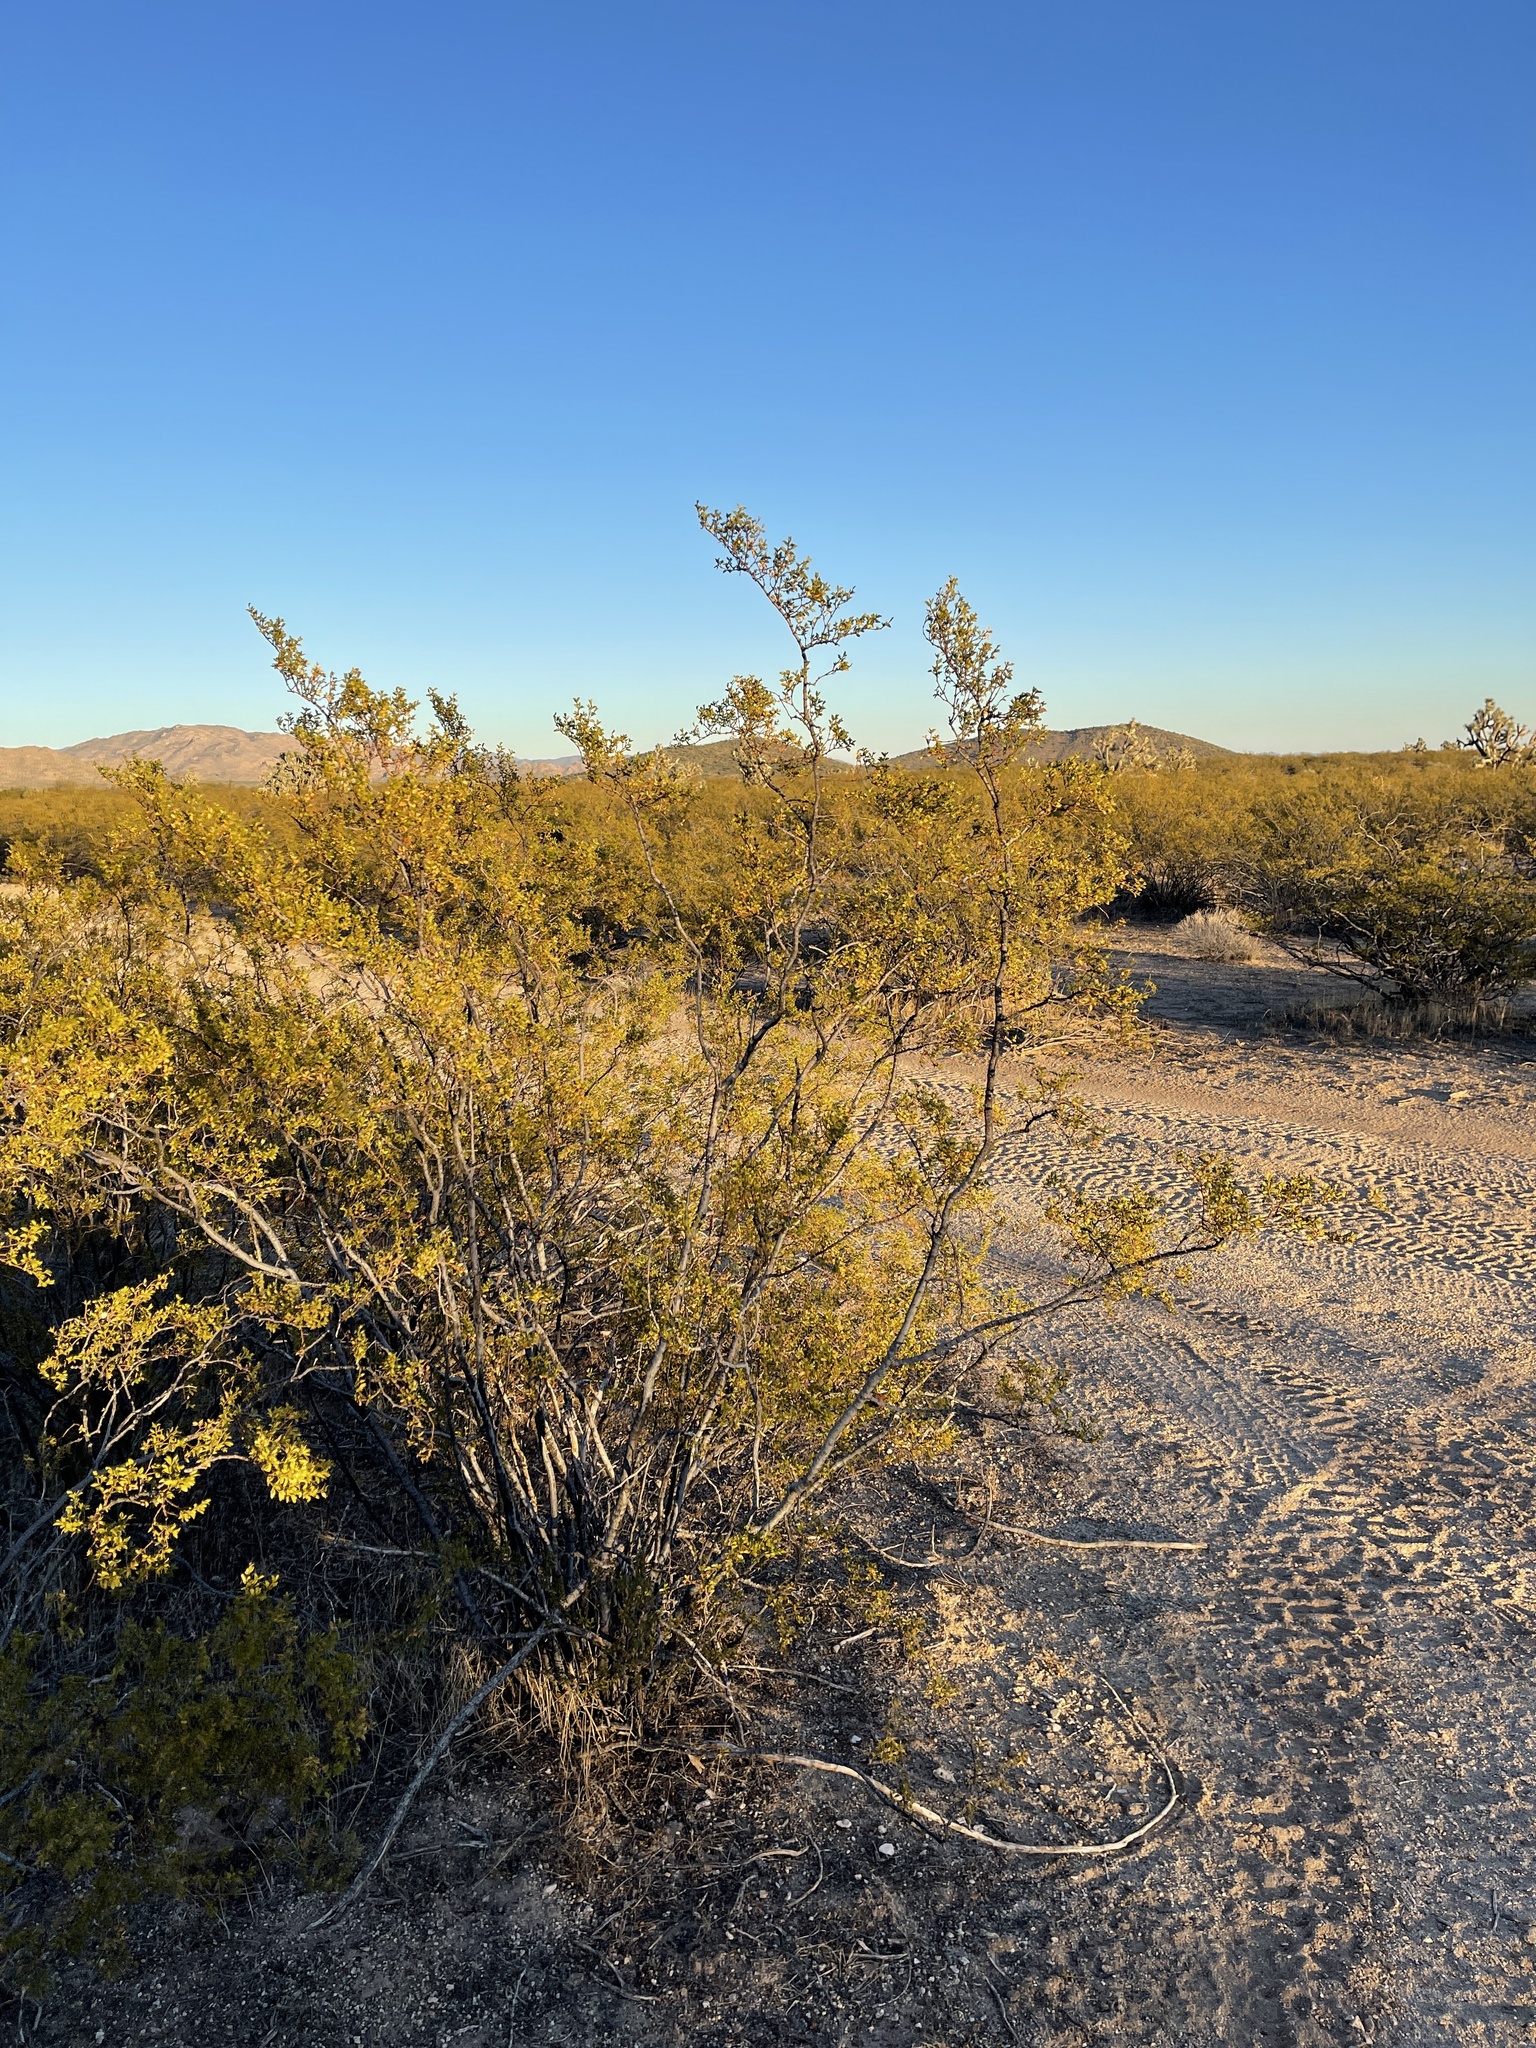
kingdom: Plantae
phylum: Tracheophyta
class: Magnoliopsida
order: Zygophyllales
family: Zygophyllaceae
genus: Larrea
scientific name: Larrea tridentata
